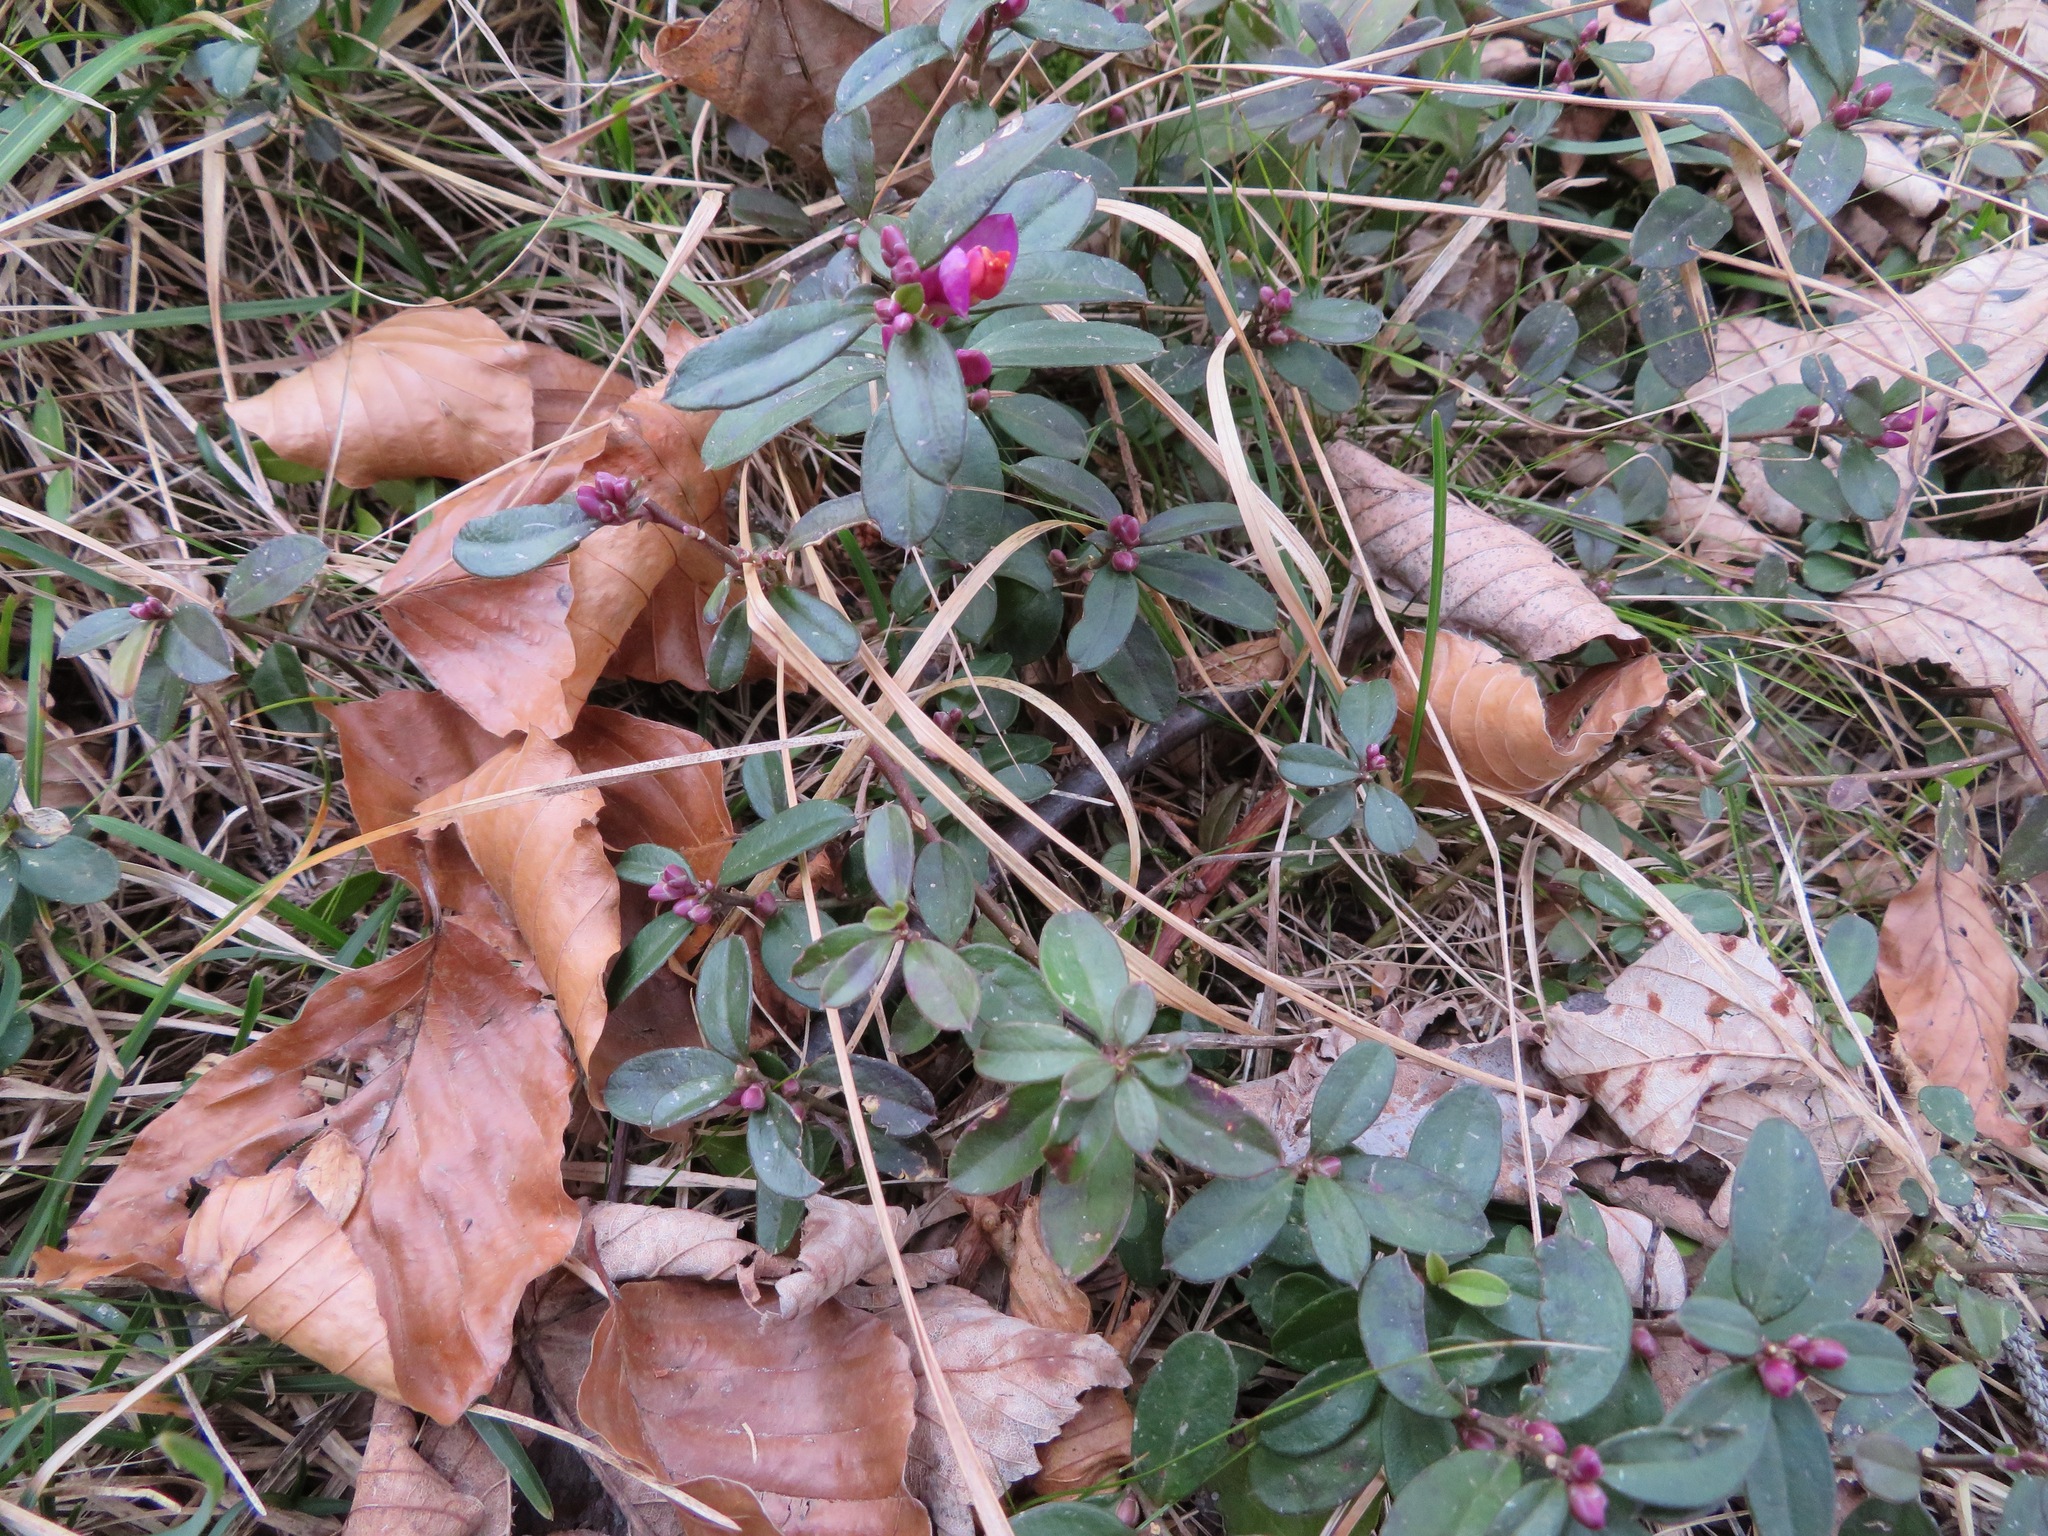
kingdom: Plantae
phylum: Tracheophyta
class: Magnoliopsida
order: Fabales
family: Polygalaceae
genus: Polygaloides
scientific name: Polygaloides chamaebuxus
